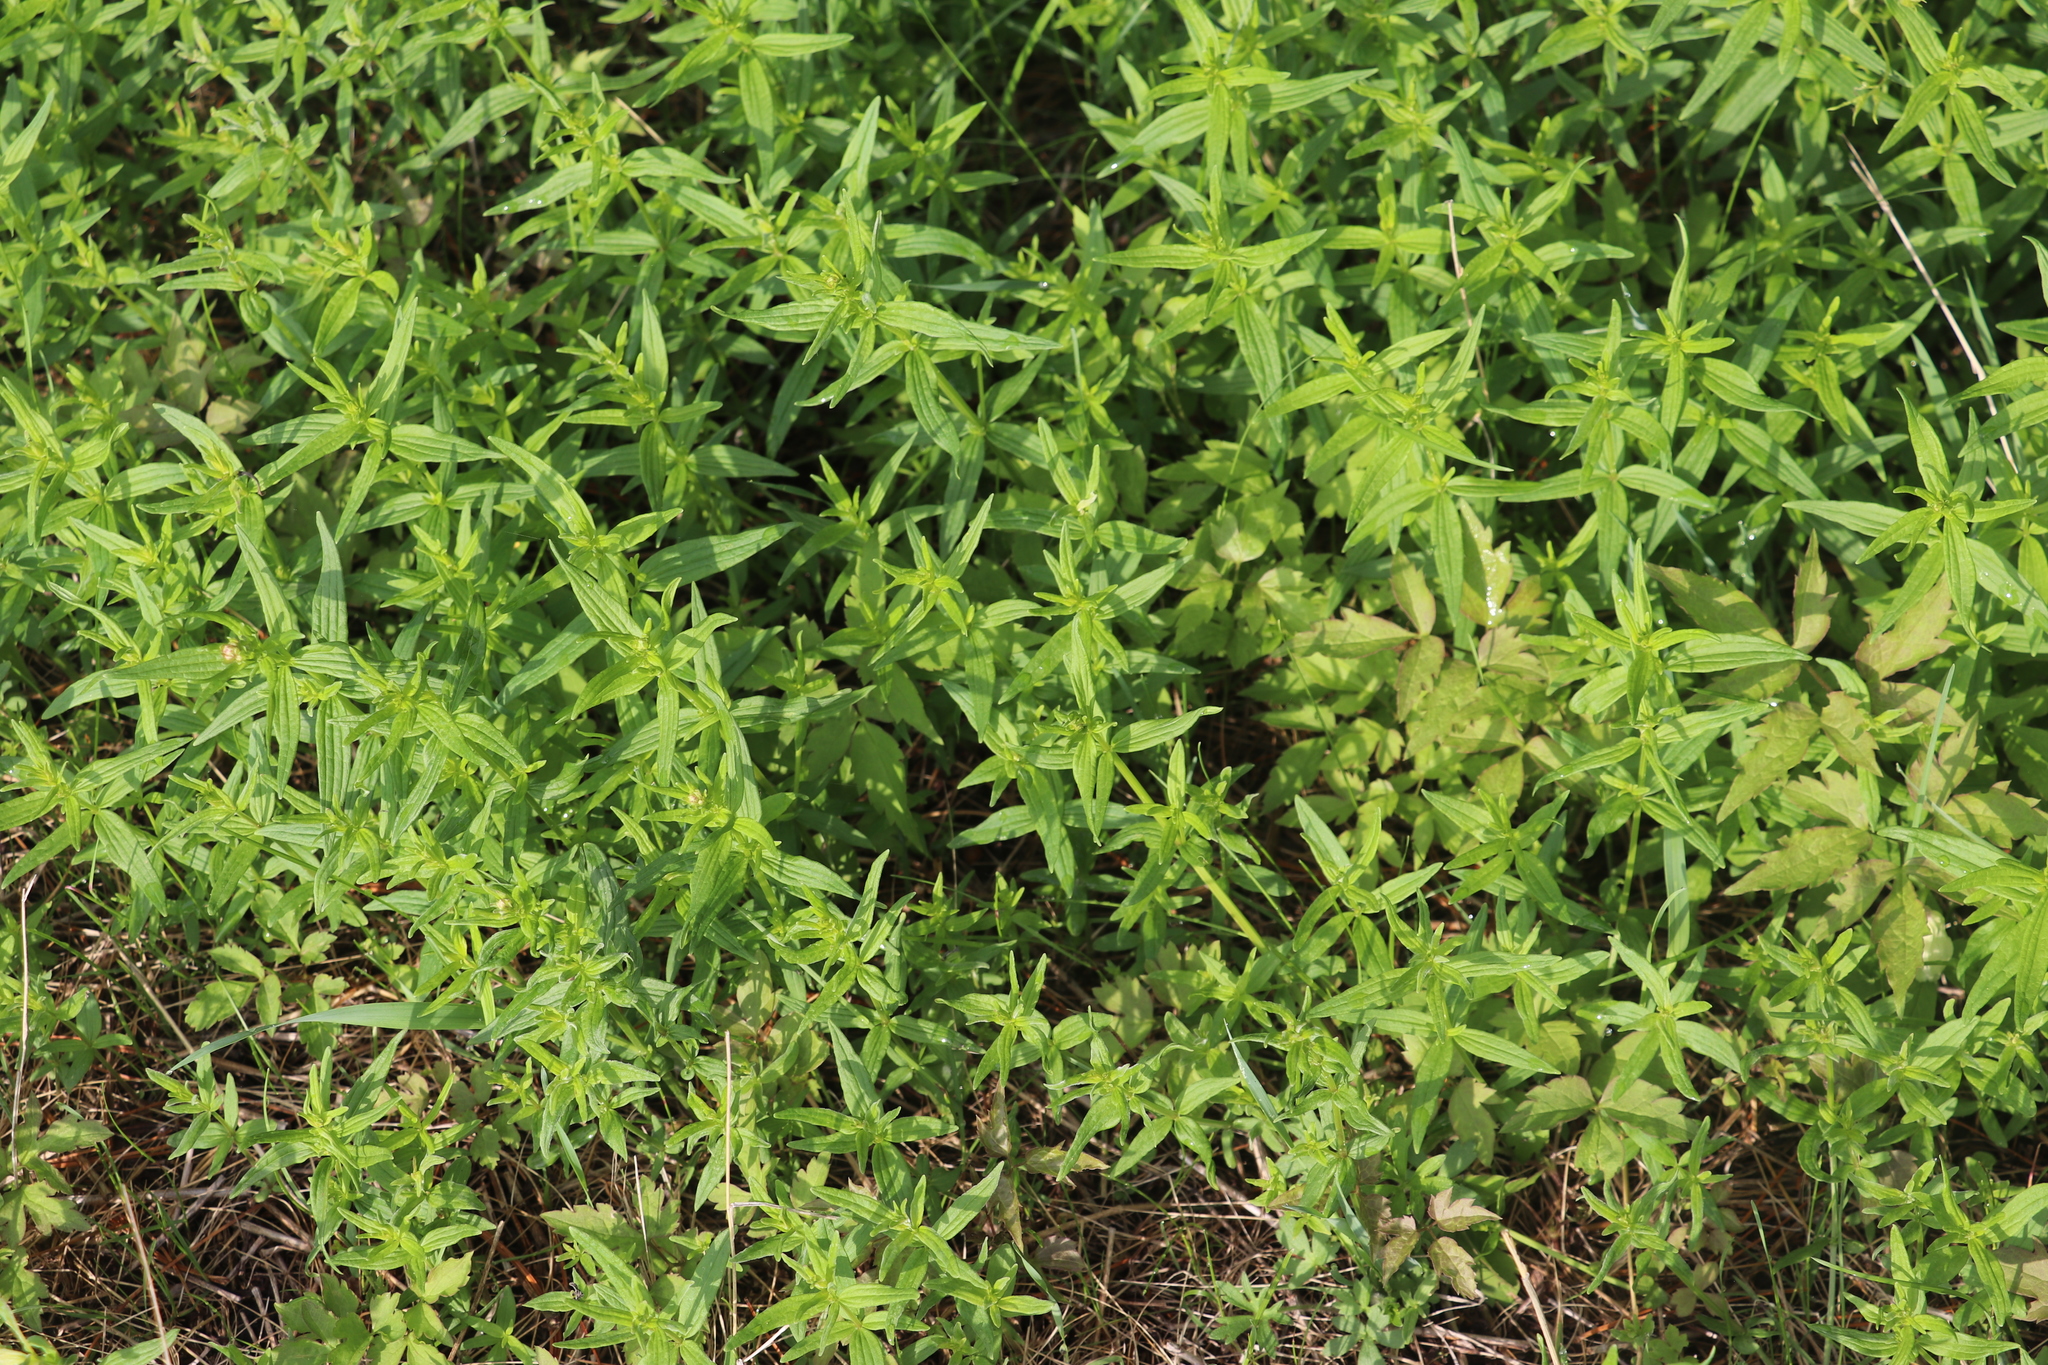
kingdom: Plantae
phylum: Tracheophyta
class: Magnoliopsida
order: Gentianales
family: Rubiaceae
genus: Galium
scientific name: Galium boreale
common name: Northern bedstraw
